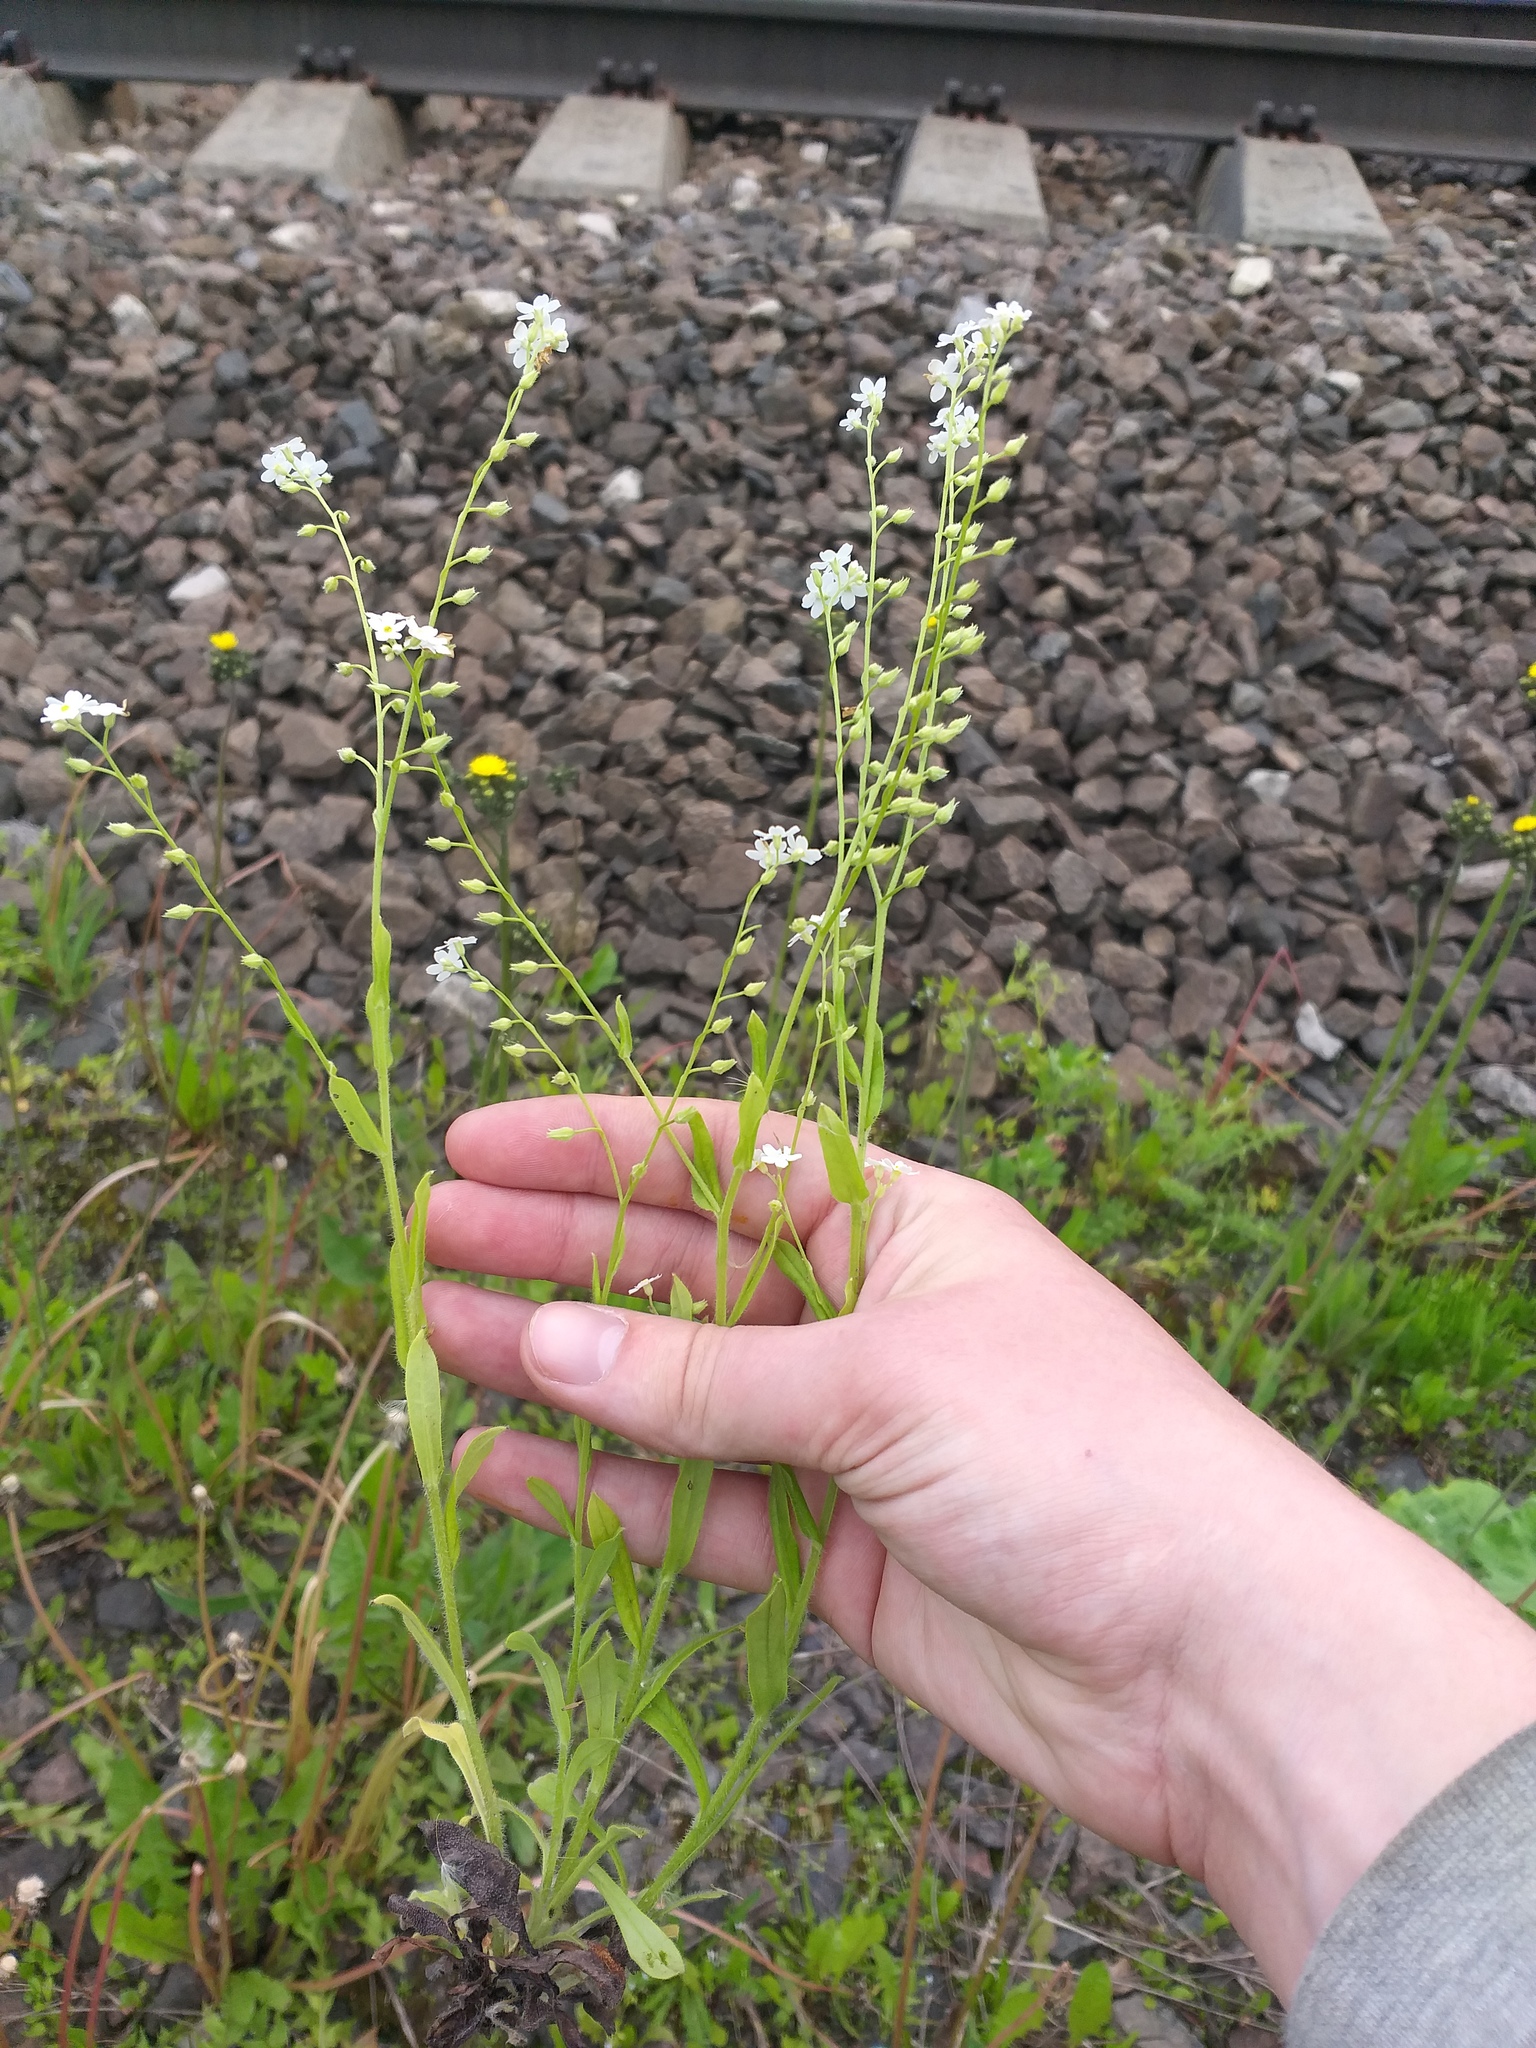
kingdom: Plantae
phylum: Tracheophyta
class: Magnoliopsida
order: Boraginales
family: Boraginaceae
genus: Myosotis
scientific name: Myosotis sylvatica
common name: Wood forget-me-not
